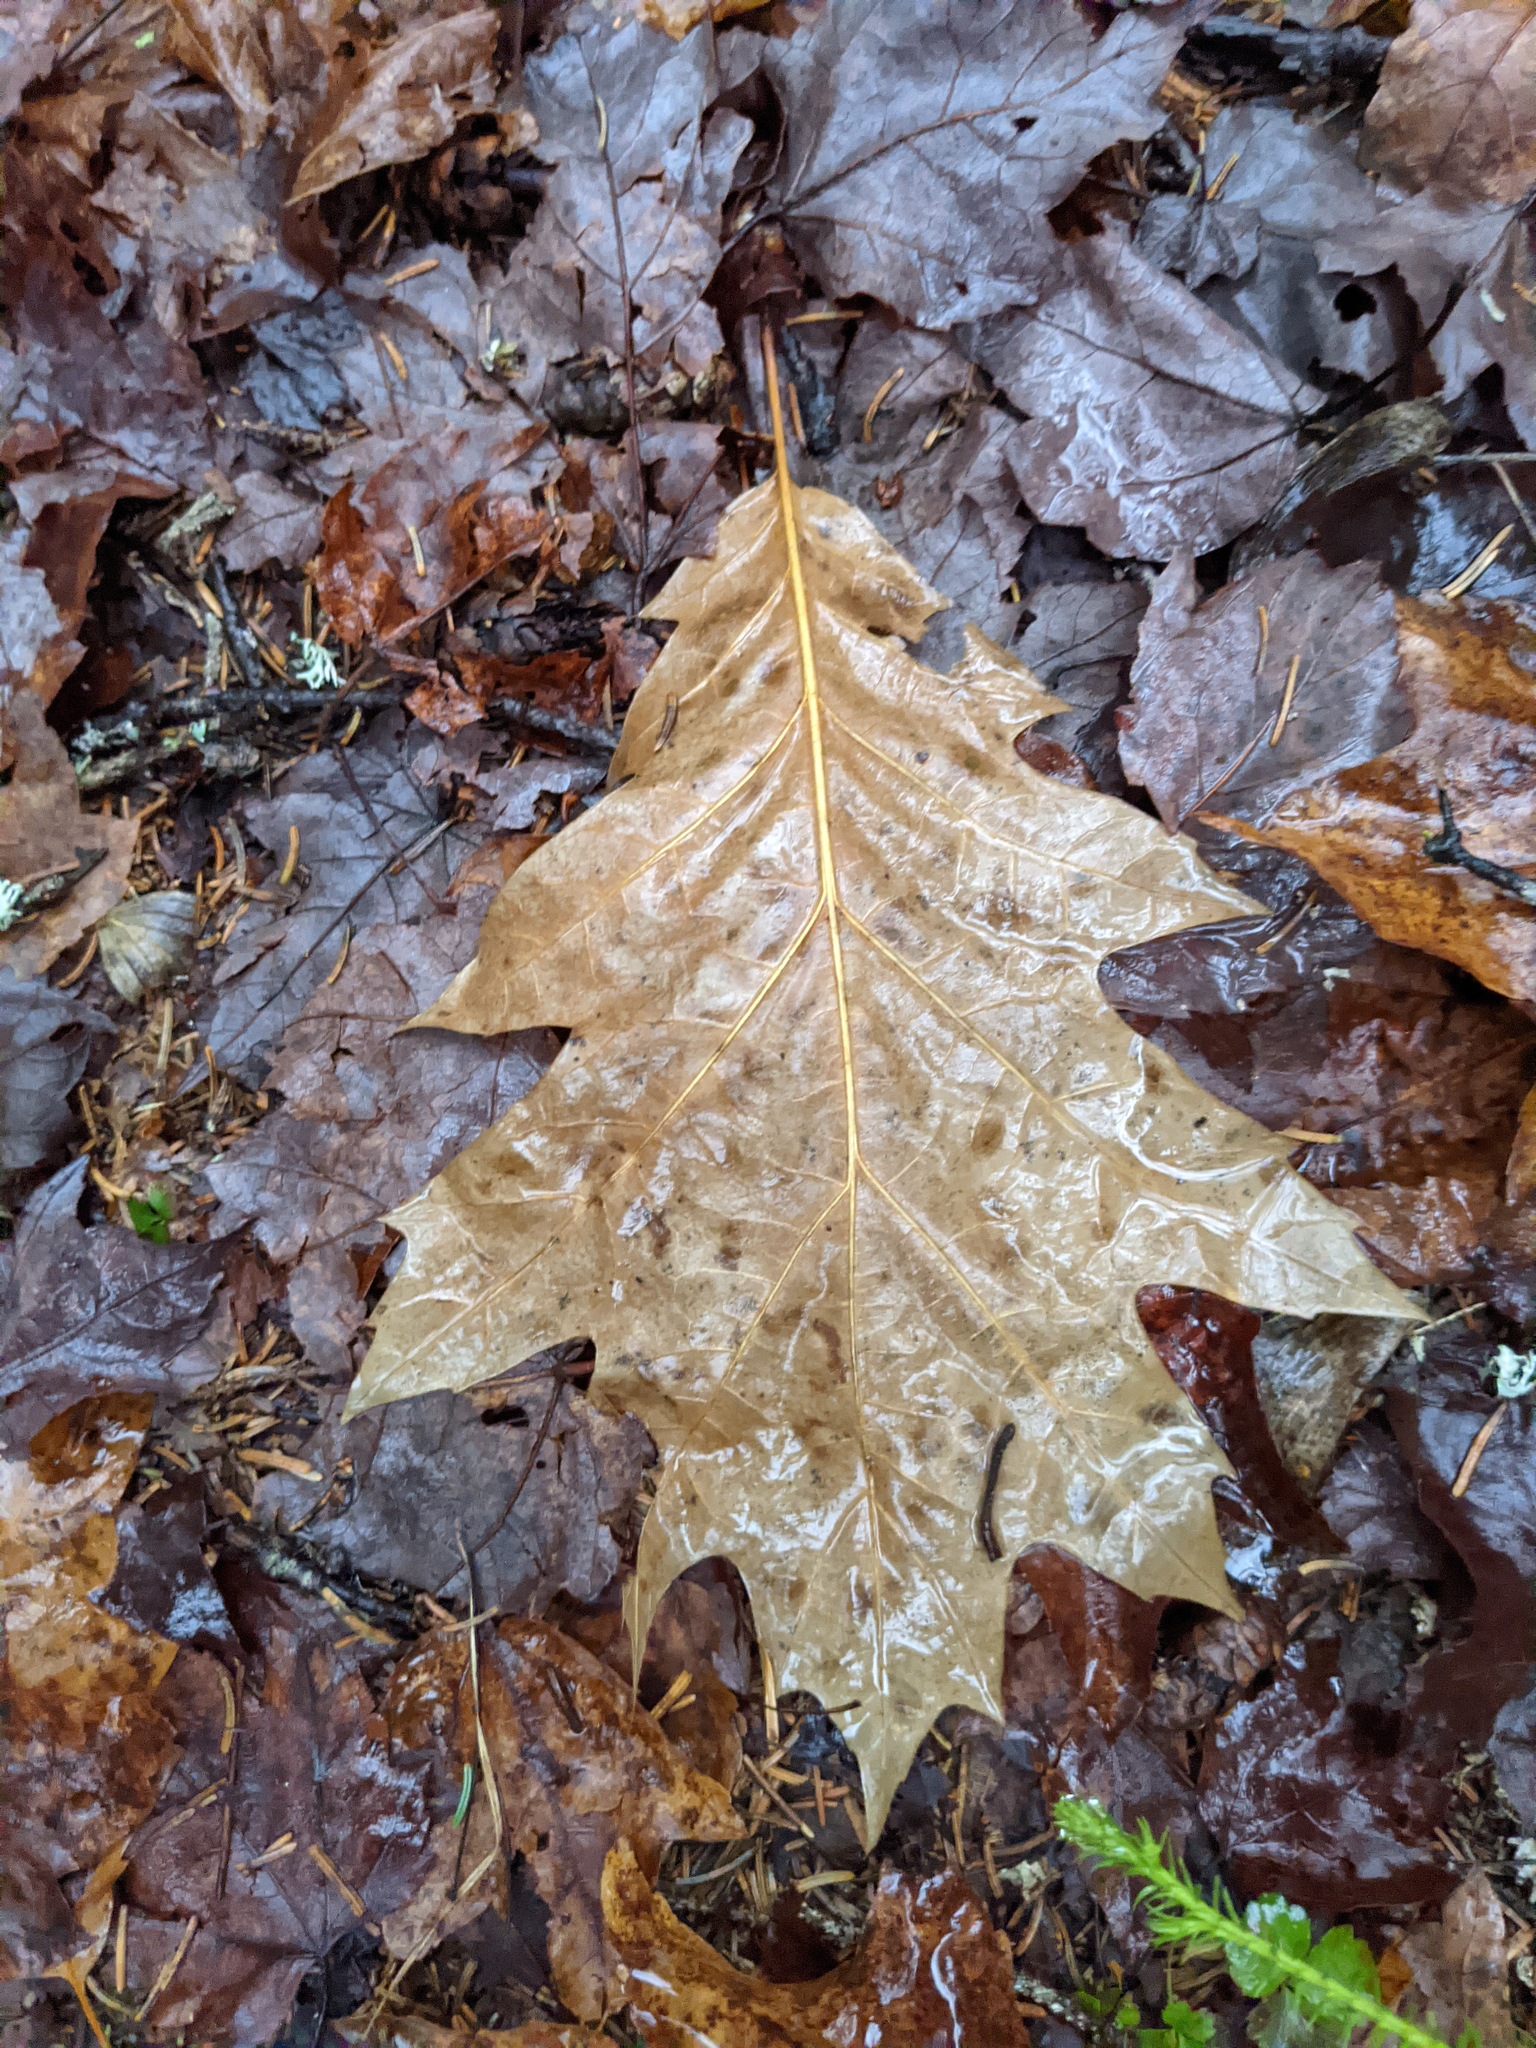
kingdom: Plantae
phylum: Tracheophyta
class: Magnoliopsida
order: Fagales
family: Fagaceae
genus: Quercus
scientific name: Quercus rubra
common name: Red oak
